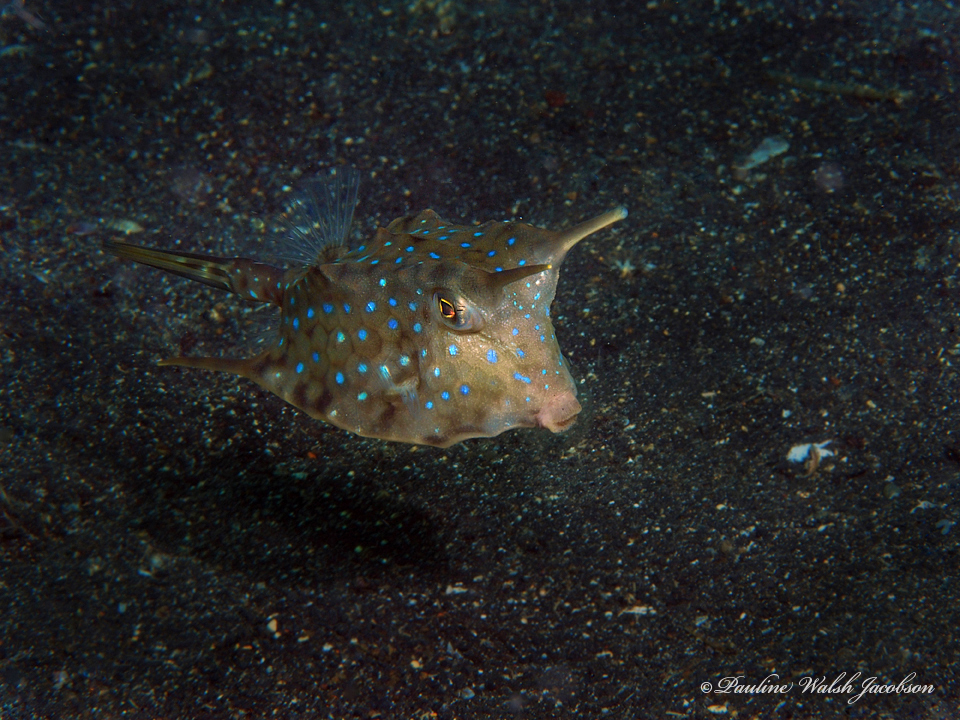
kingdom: Animalia
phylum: Chordata
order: Tetraodontiformes
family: Ostraciidae
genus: Lactoria
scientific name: Lactoria cornuta
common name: Longhorn cowfish
